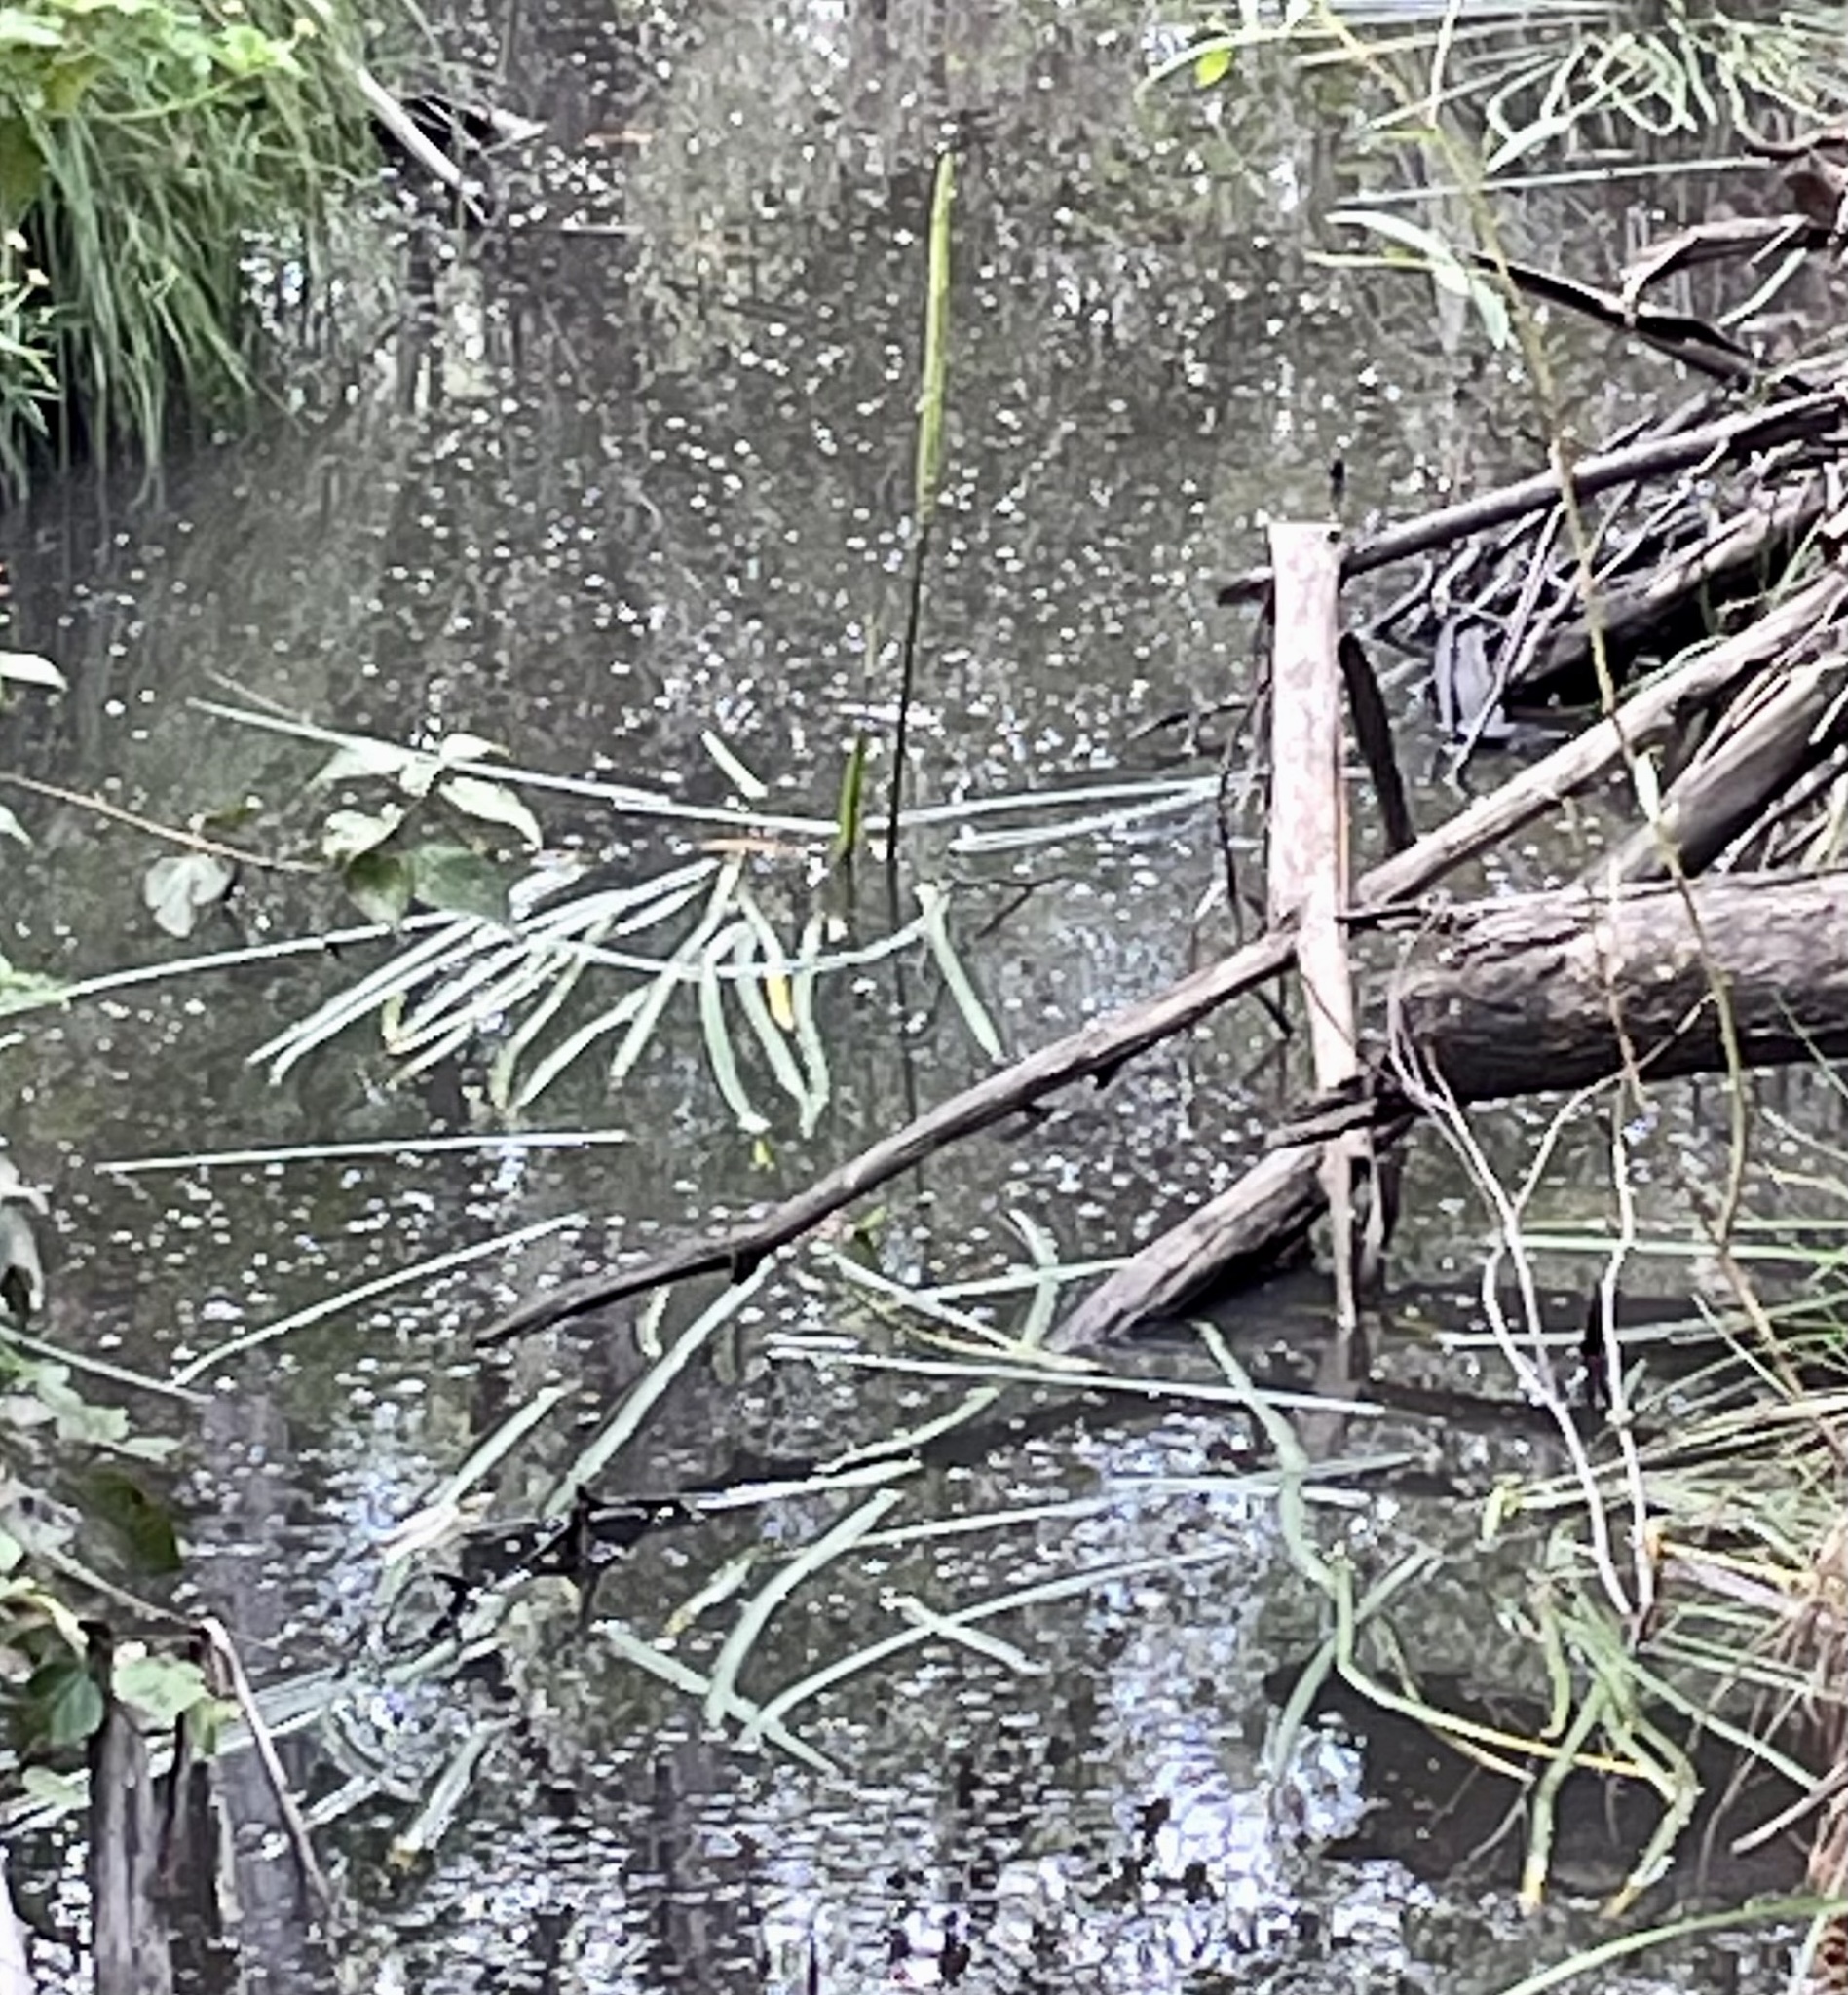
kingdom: Plantae
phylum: Tracheophyta
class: Liliopsida
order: Alismatales
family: Juncaginaceae
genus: Cycnogeton
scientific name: Cycnogeton procerum
